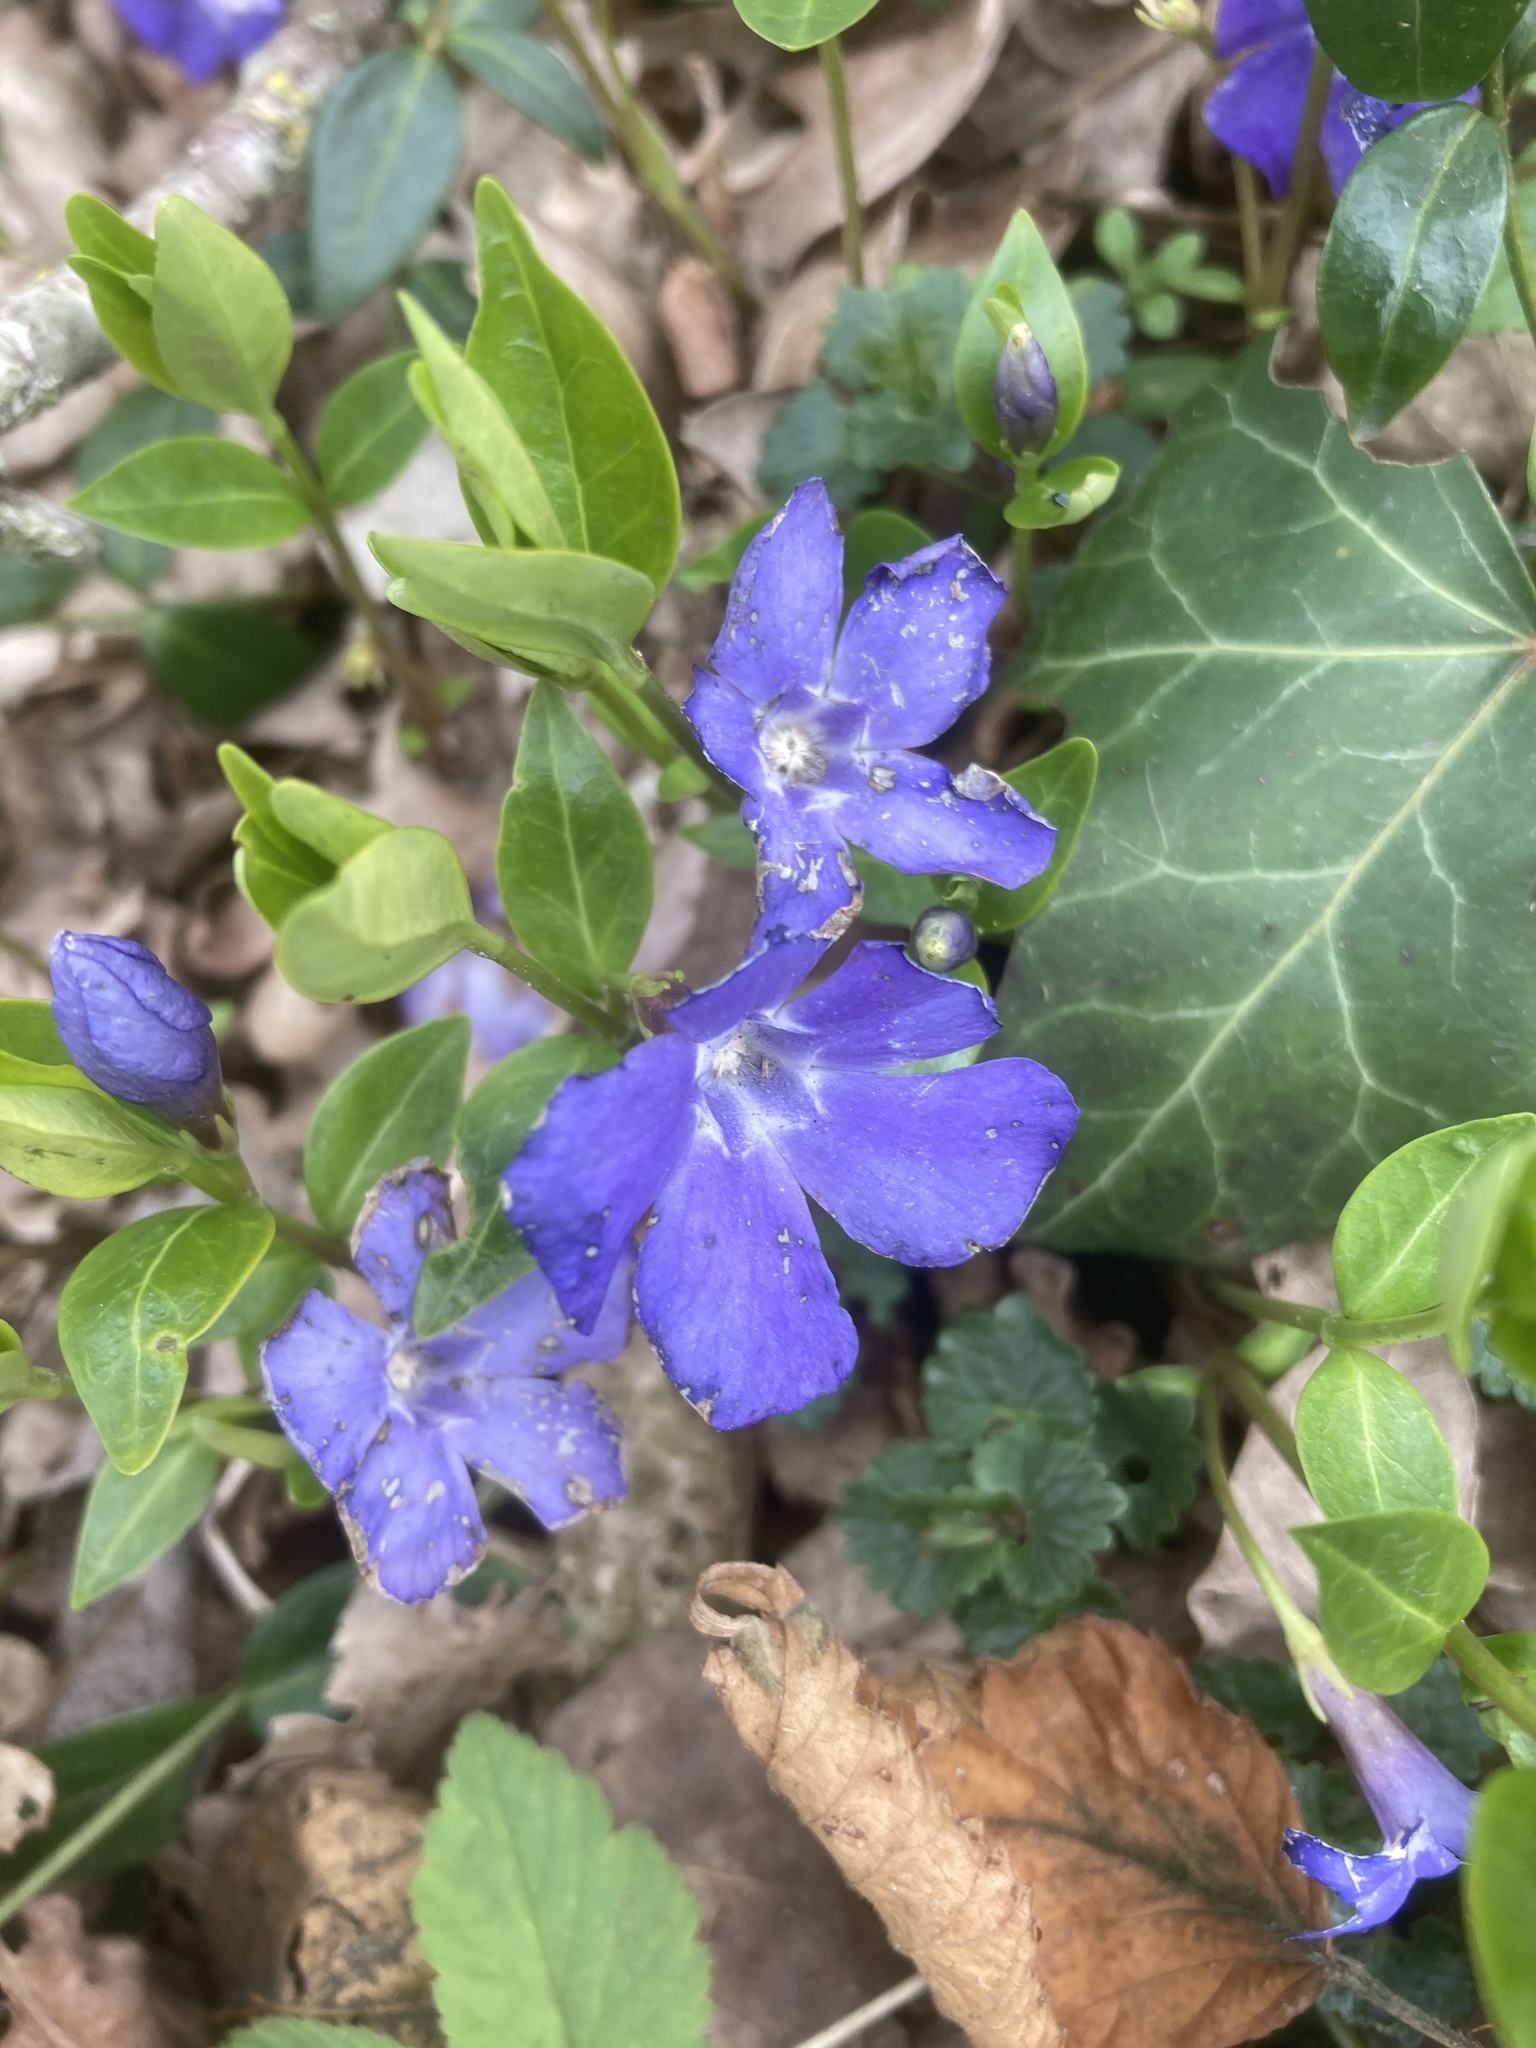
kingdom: Plantae
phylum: Tracheophyta
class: Magnoliopsida
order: Gentianales
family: Apocynaceae
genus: Vinca
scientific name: Vinca minor
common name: Lesser periwinkle
